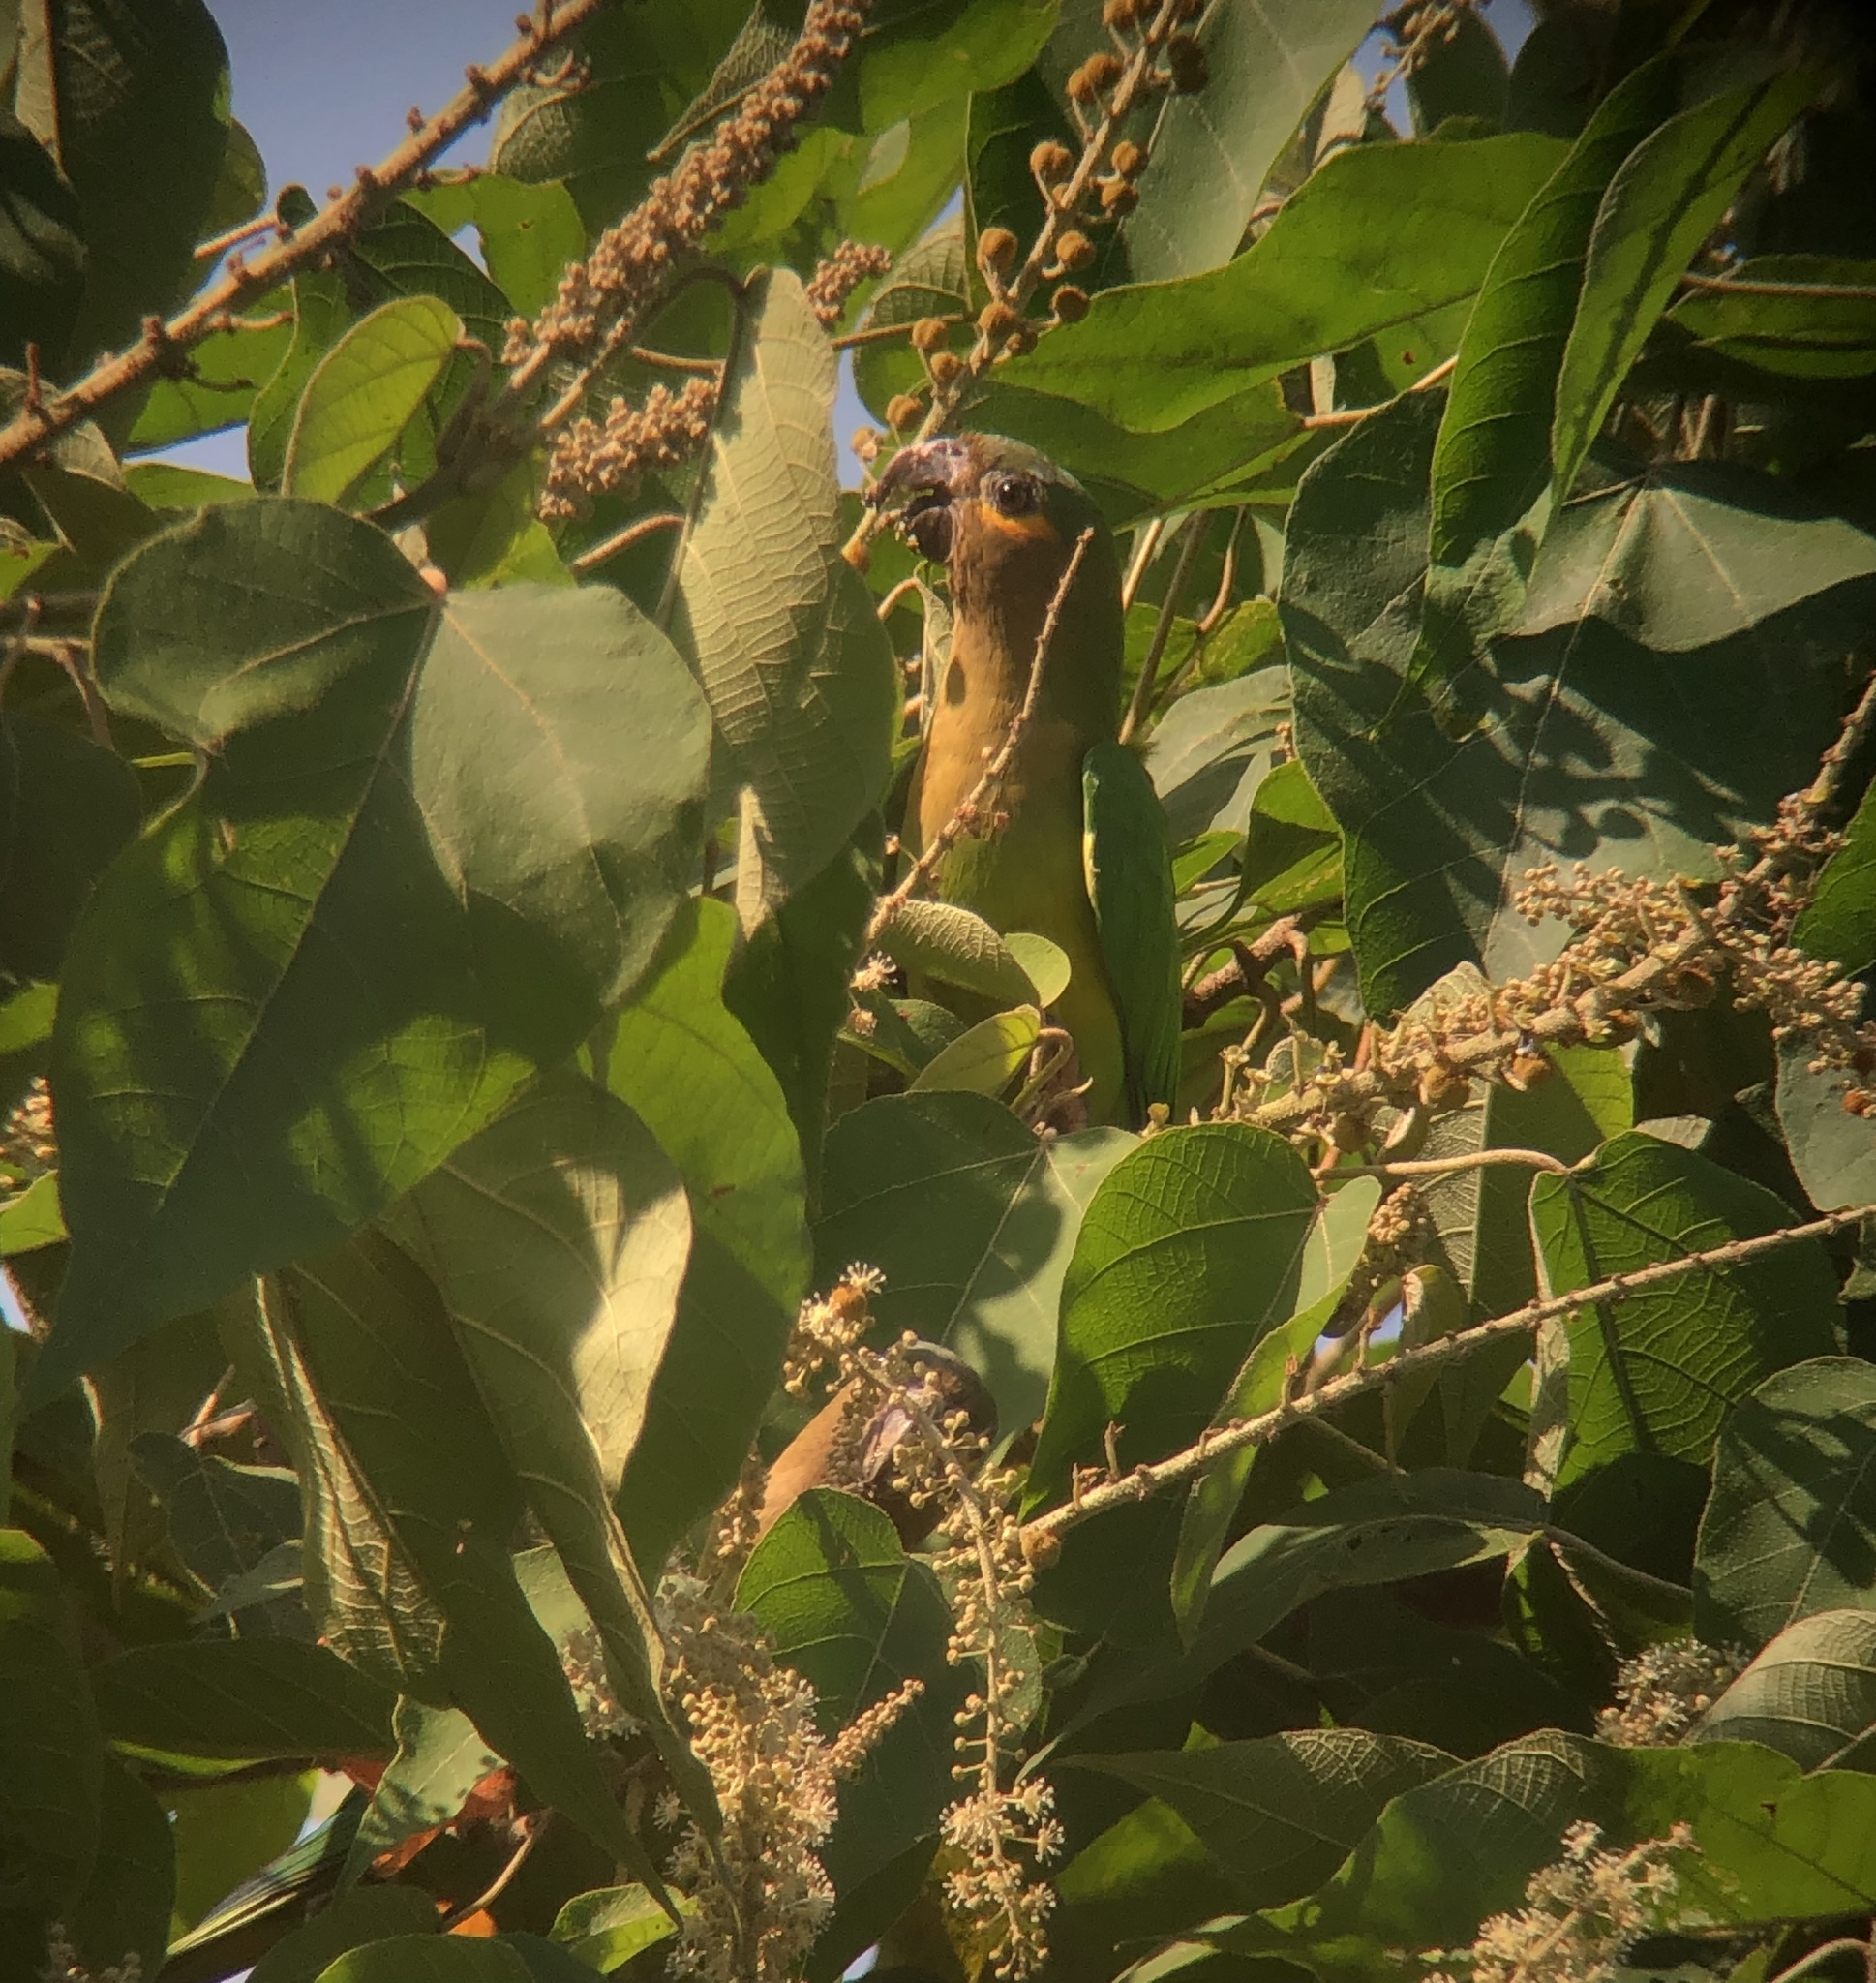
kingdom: Animalia
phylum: Chordata
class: Aves
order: Psittaciformes
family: Psittacidae
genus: Aratinga
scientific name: Aratinga pertinax
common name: Brown-throated parakeet
